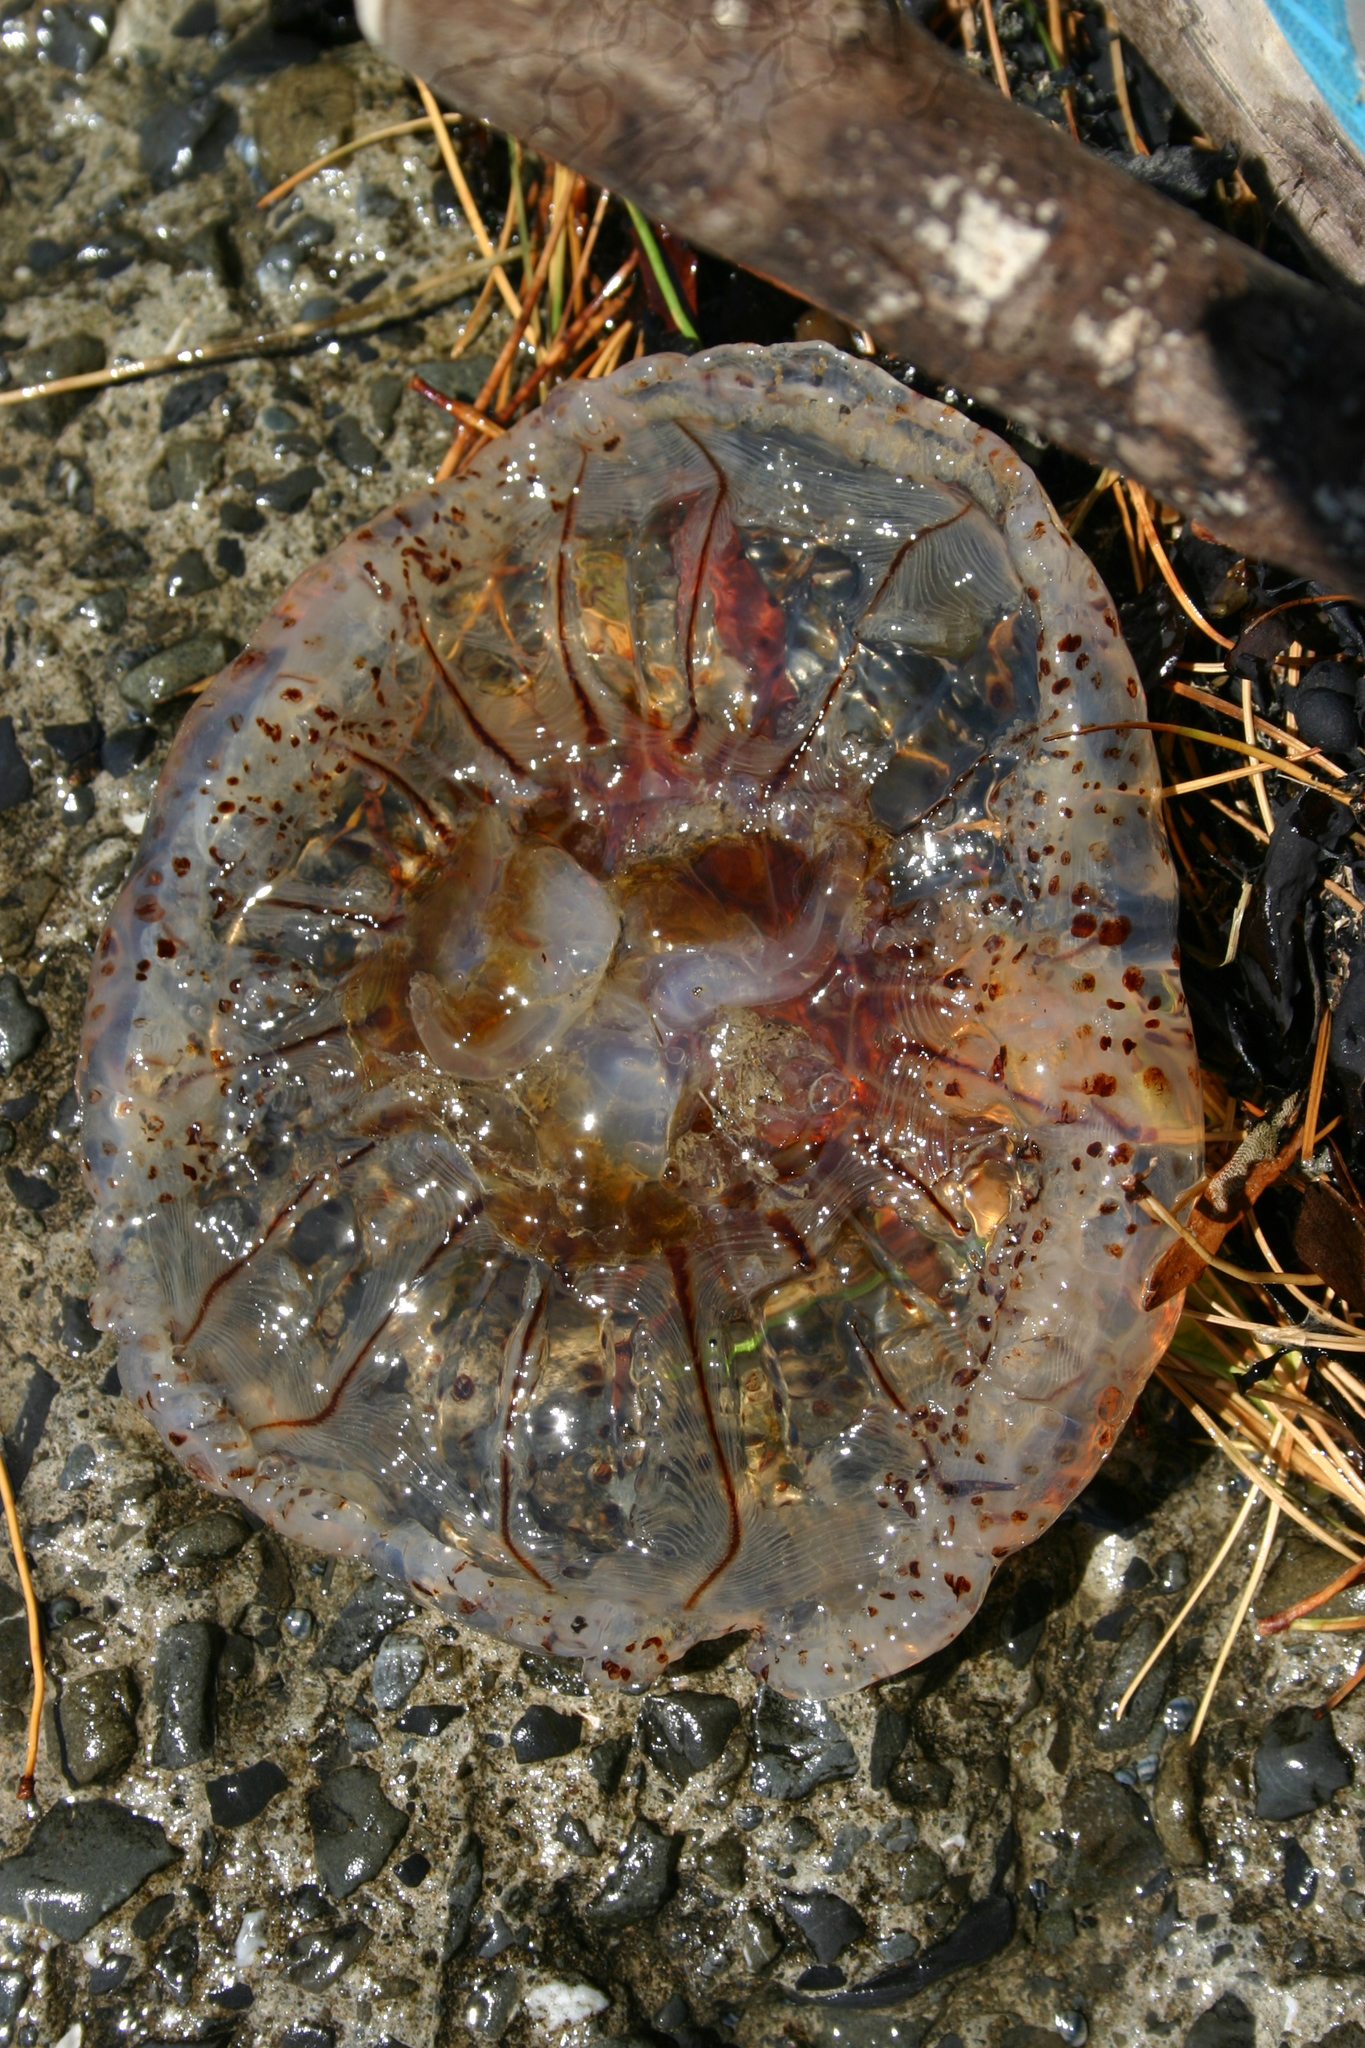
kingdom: Animalia
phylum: Cnidaria
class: Scyphozoa
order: Semaeostomeae
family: Cyaneidae
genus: Desmonema
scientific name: Desmonema gaudichaudi
